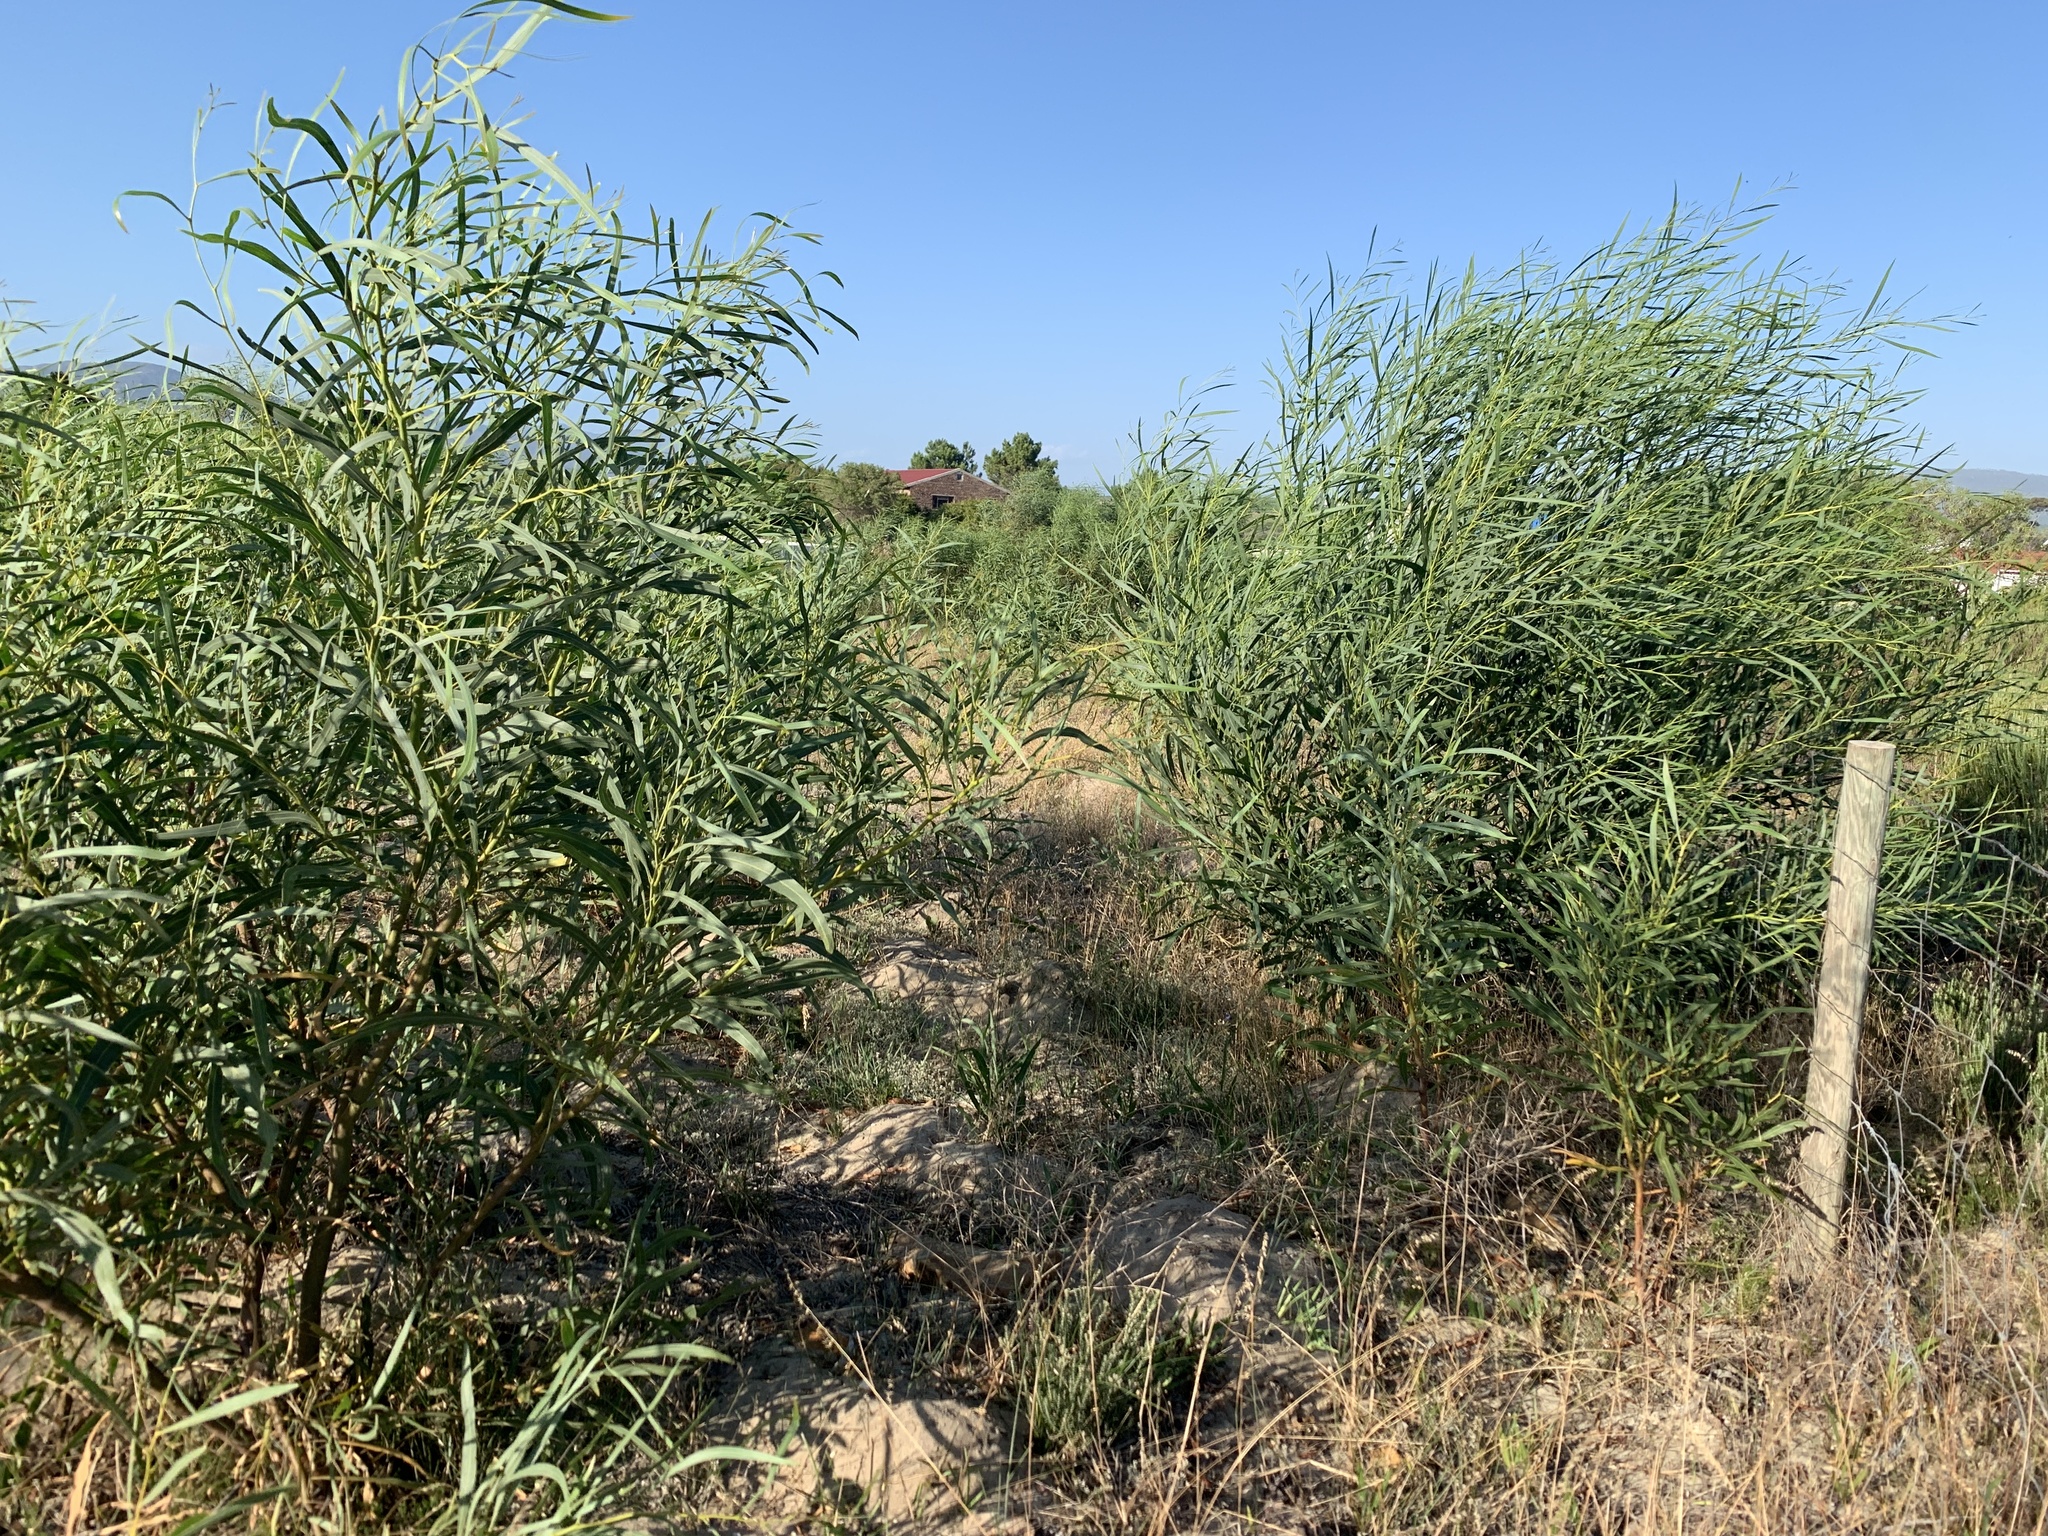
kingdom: Plantae
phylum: Tracheophyta
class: Magnoliopsida
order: Fabales
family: Fabaceae
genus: Acacia
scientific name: Acacia saligna
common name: Orange wattle
